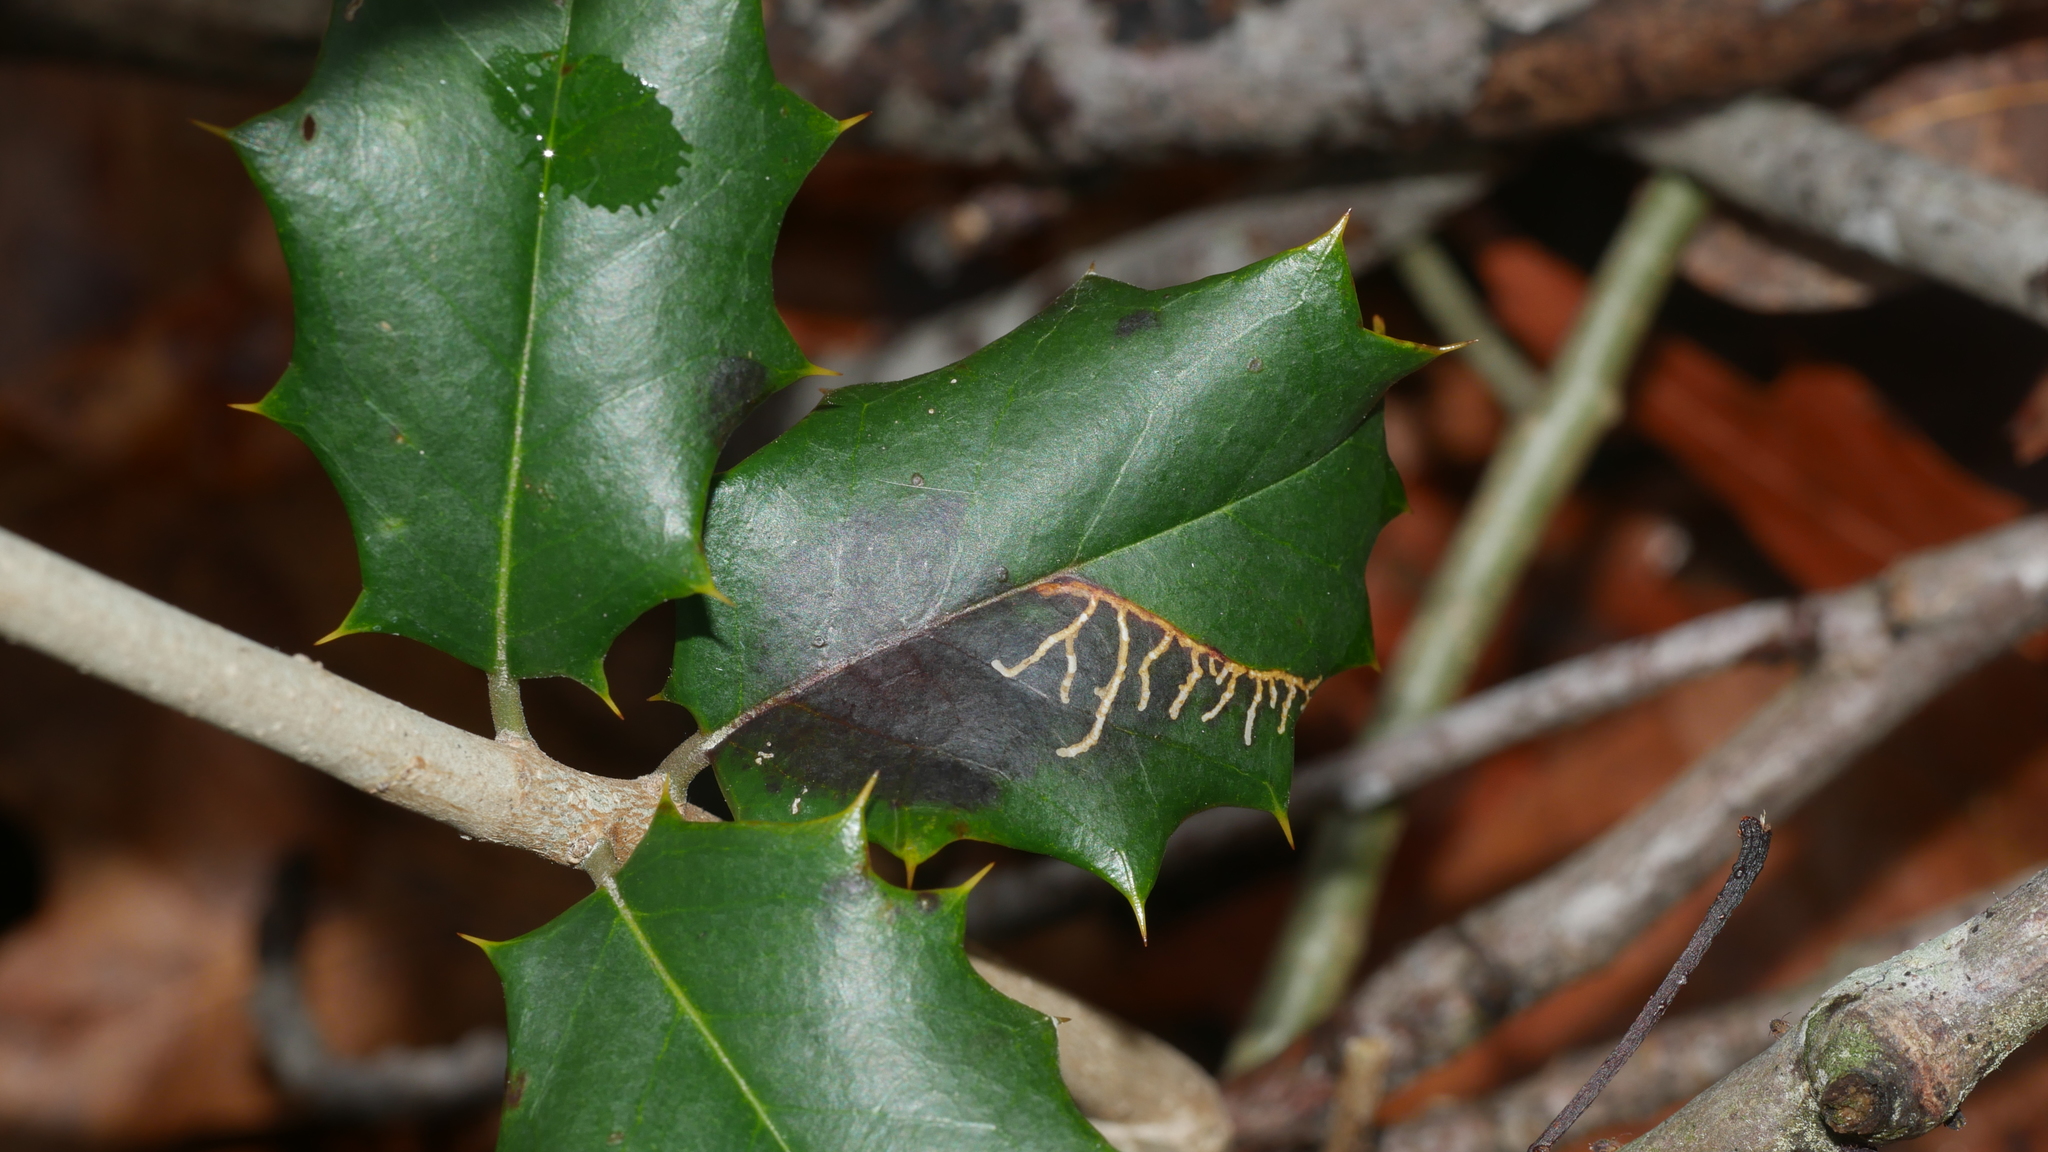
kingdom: Animalia
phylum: Arthropoda
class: Insecta
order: Lepidoptera
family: Tortricidae
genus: Rhopobota
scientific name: Rhopobota
